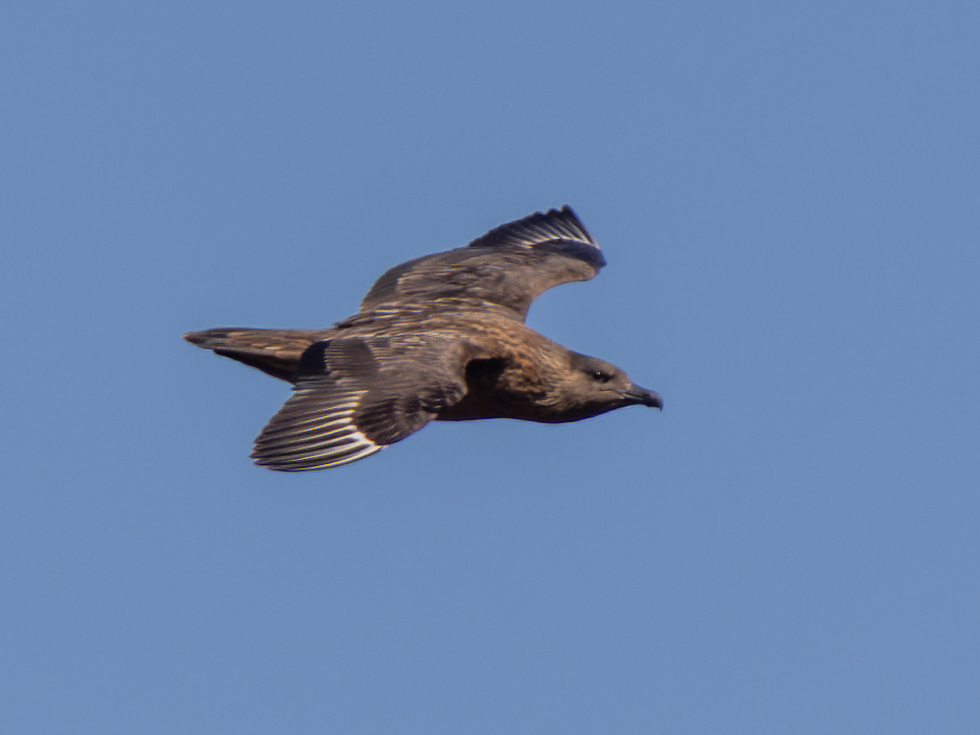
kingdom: Animalia
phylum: Chordata
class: Aves
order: Charadriiformes
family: Stercorariidae
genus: Stercorarius
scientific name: Stercorarius skua
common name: Great skua
